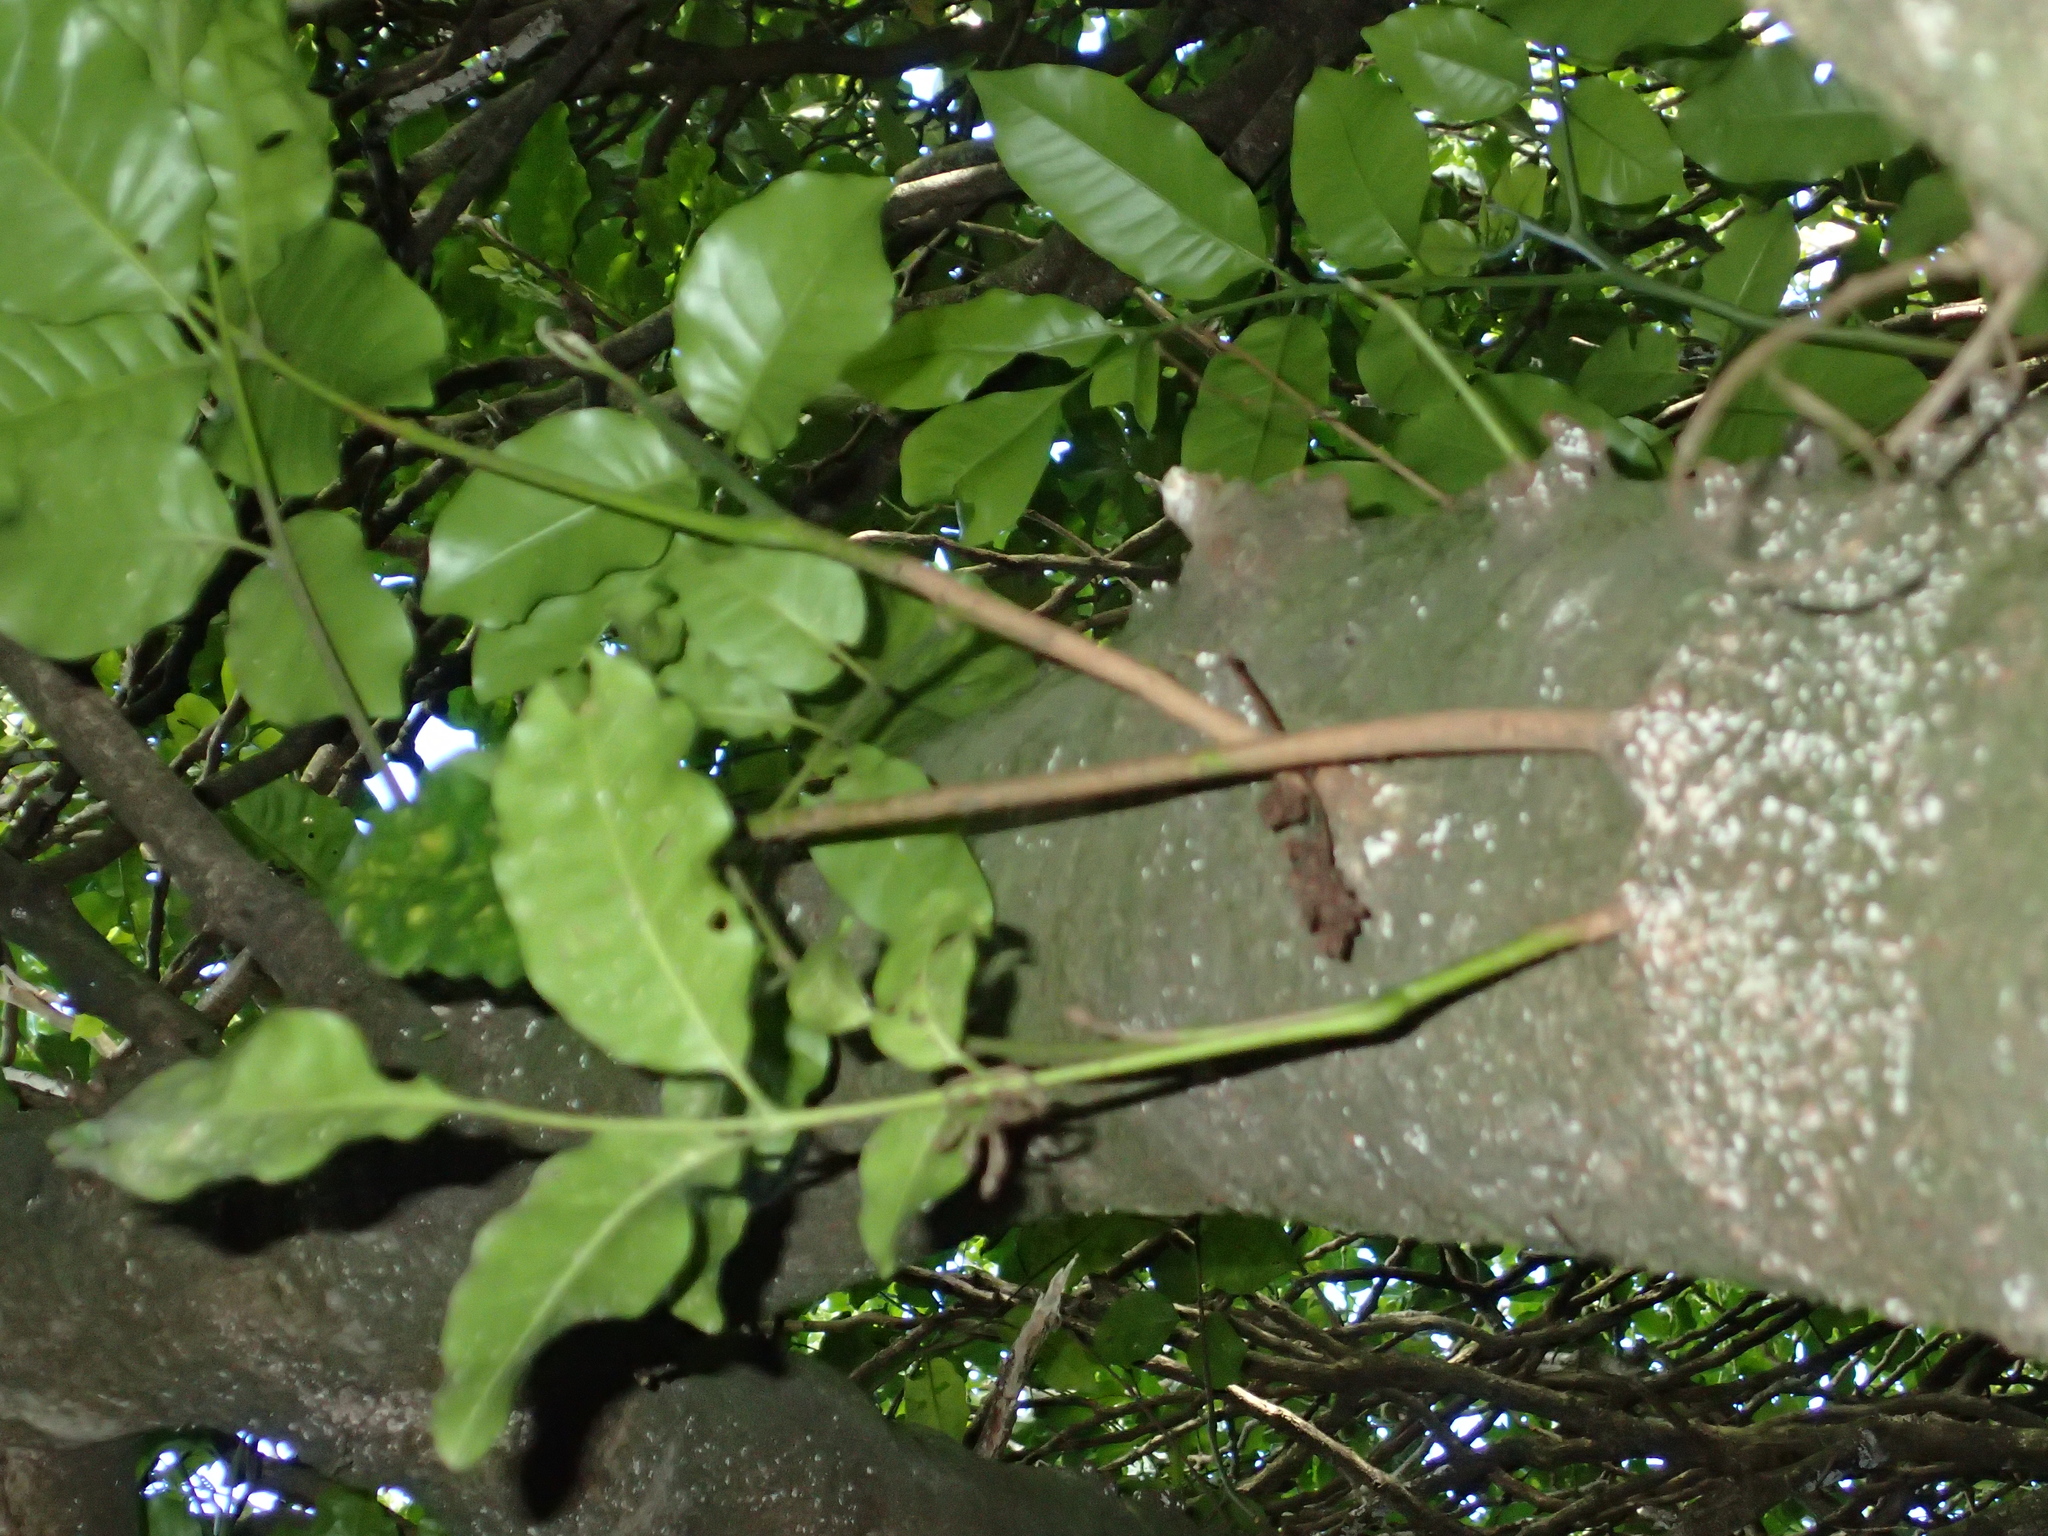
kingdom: Plantae
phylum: Tracheophyta
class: Magnoliopsida
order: Sapindales
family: Meliaceae
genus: Didymocheton
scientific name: Didymocheton spectabilis
